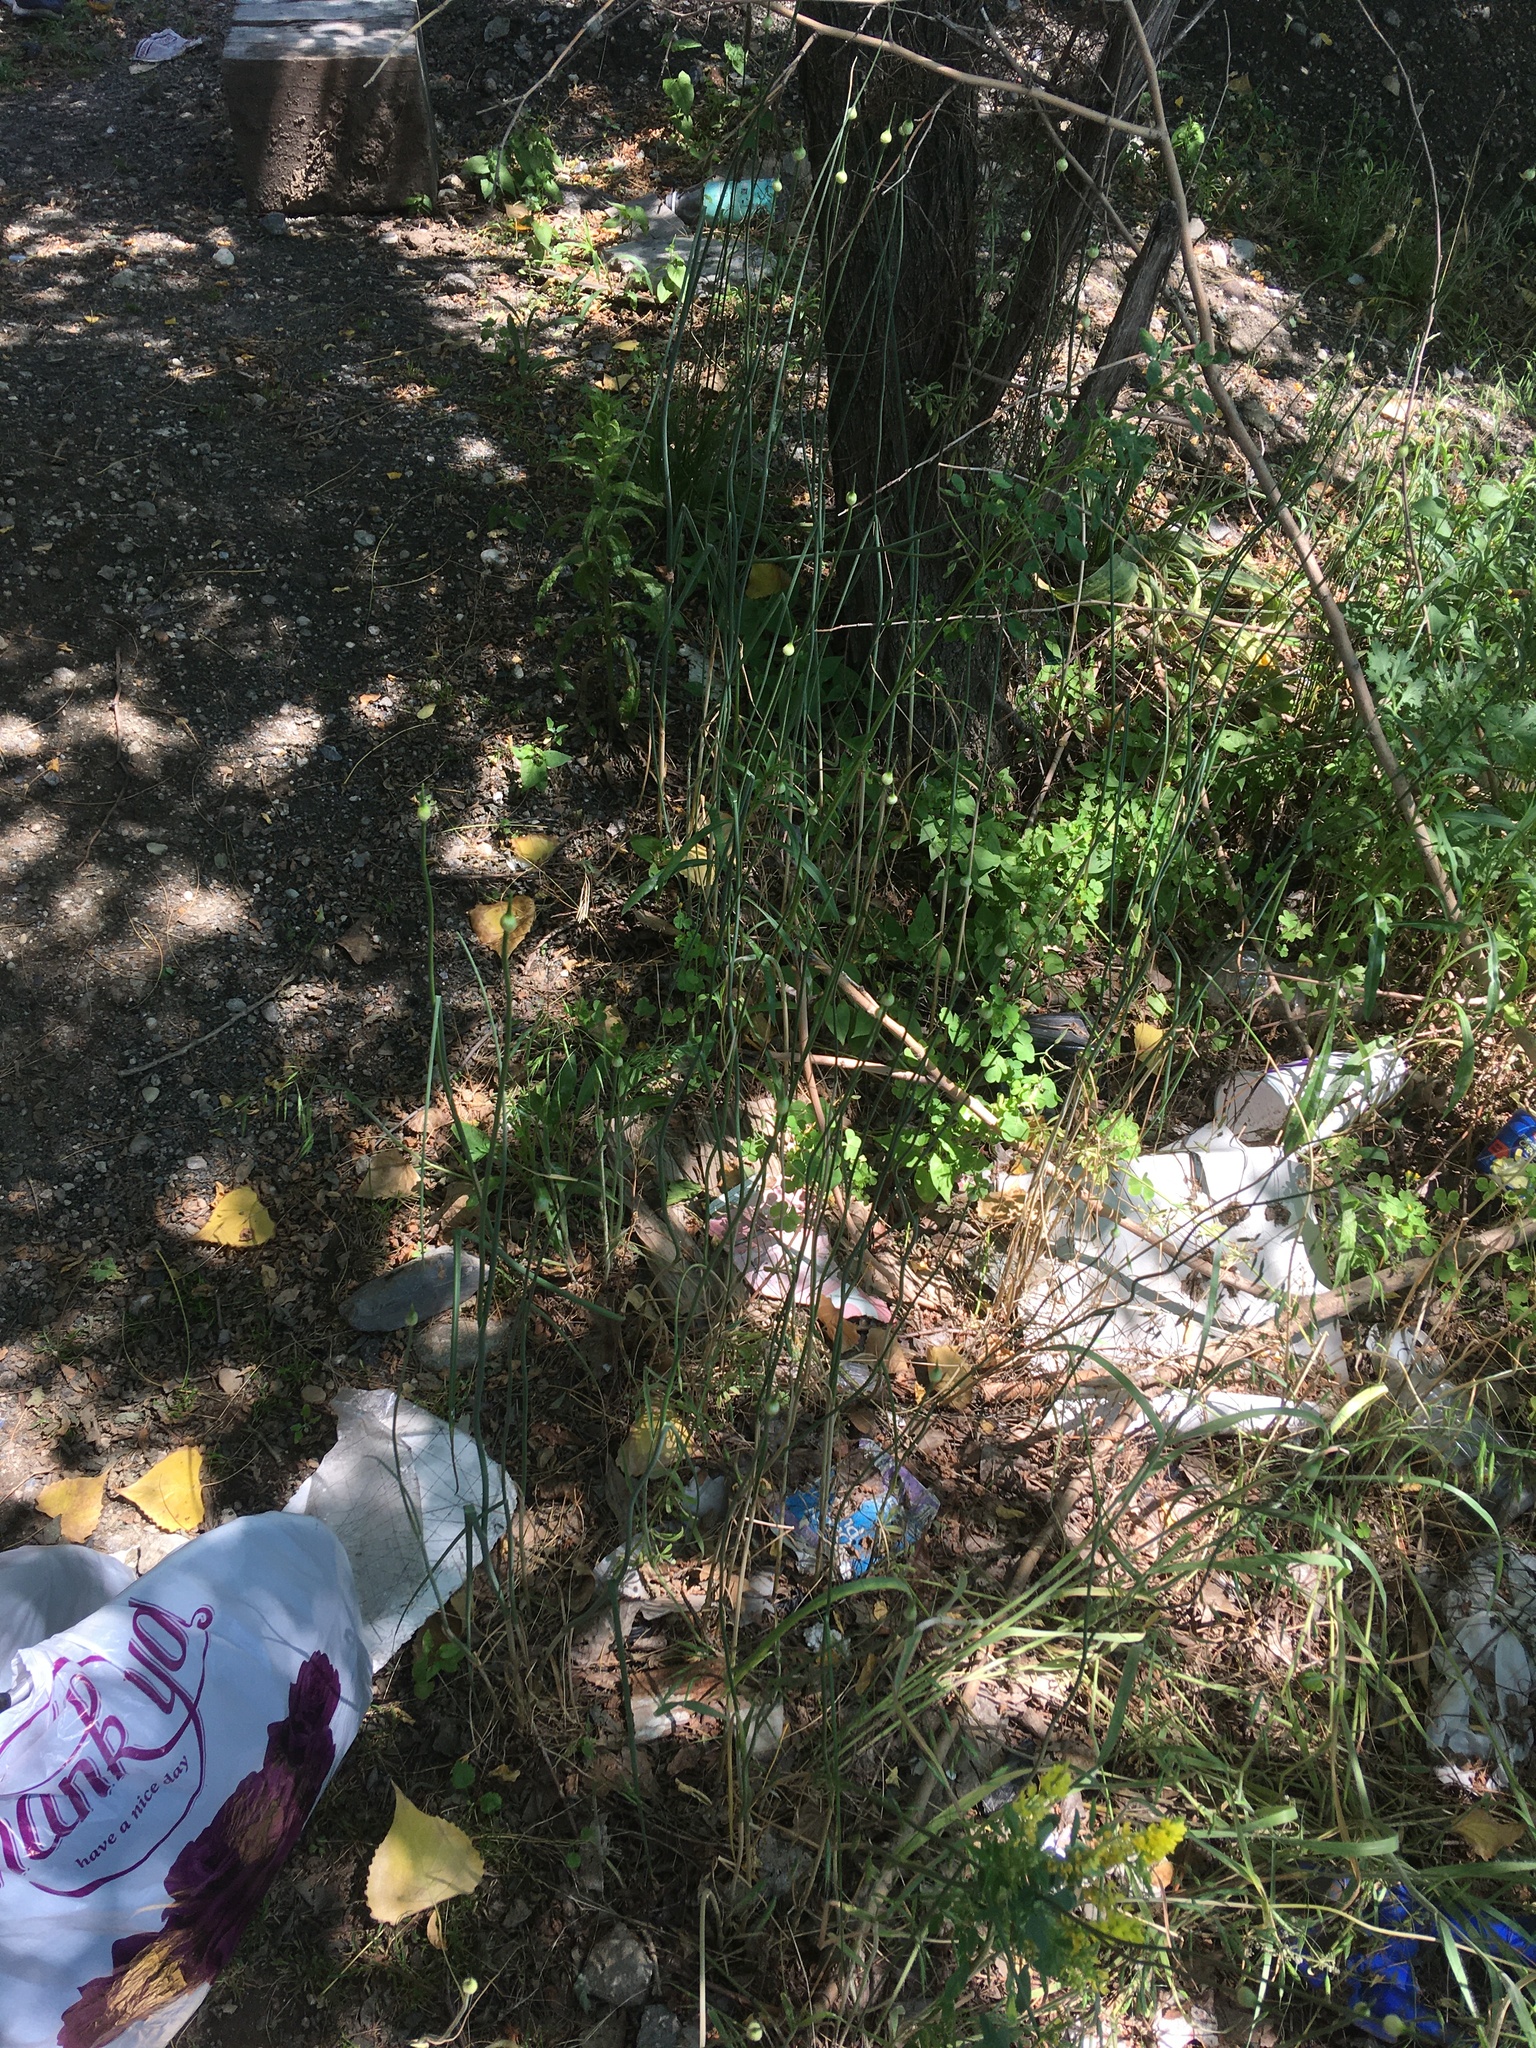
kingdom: Plantae
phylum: Tracheophyta
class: Liliopsida
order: Asparagales
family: Amaryllidaceae
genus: Allium
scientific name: Allium canadense
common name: Meadow garlic
